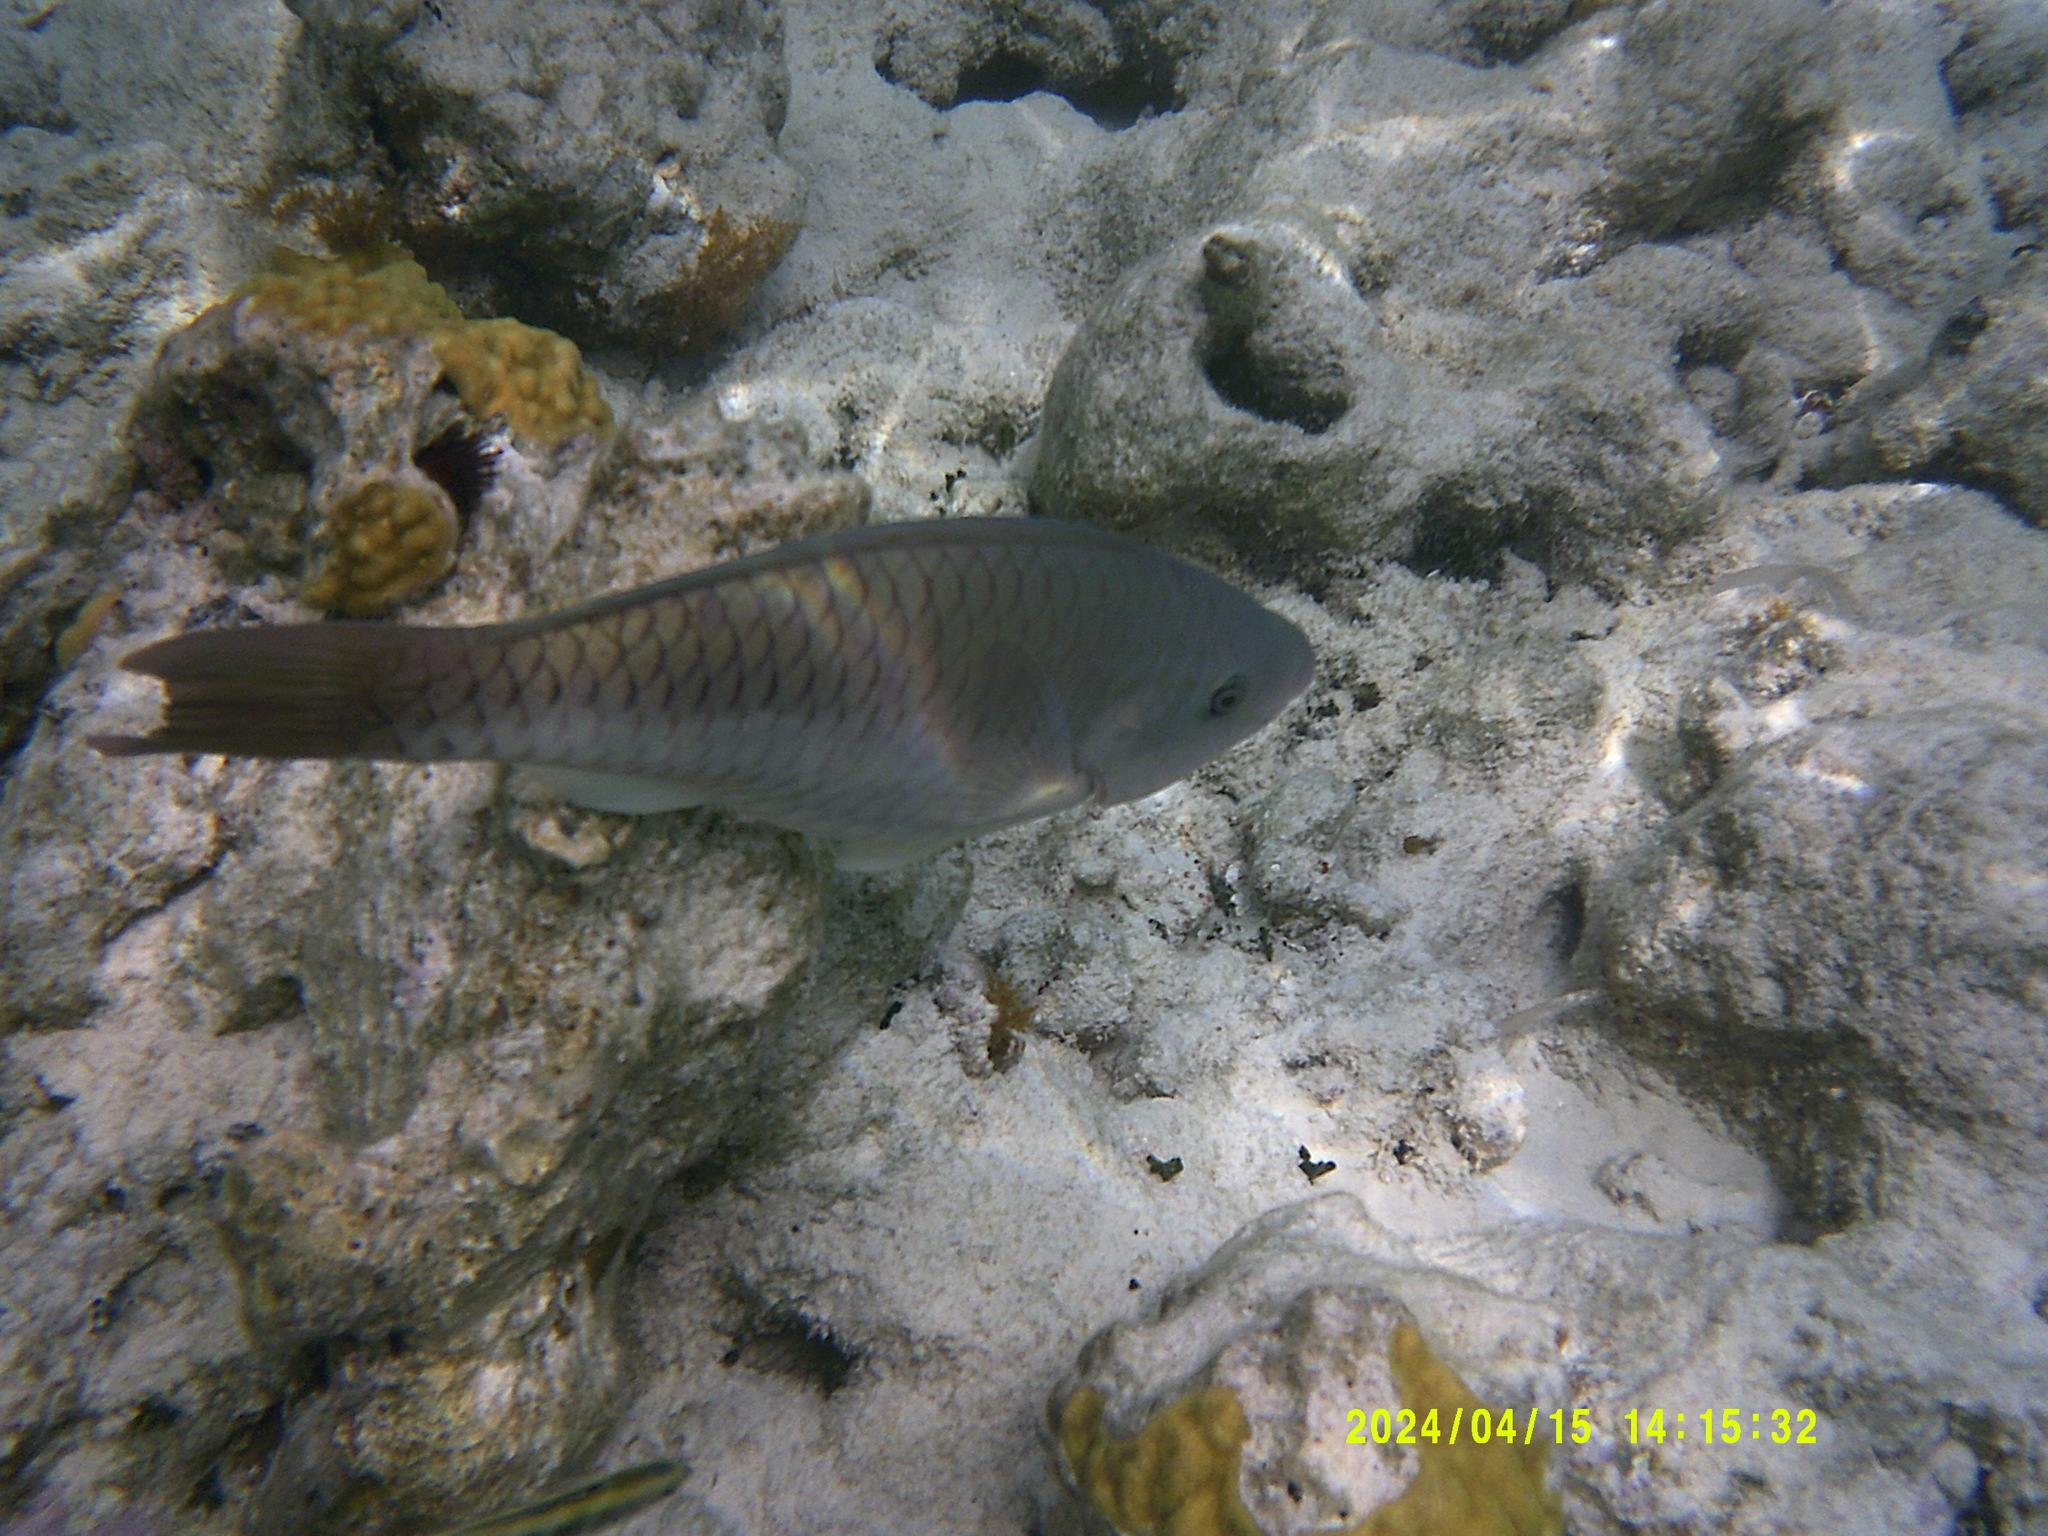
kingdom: Animalia
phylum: Chordata
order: Perciformes
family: Scaridae
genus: Scarus
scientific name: Scarus vetula
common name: Queen parrotfish
